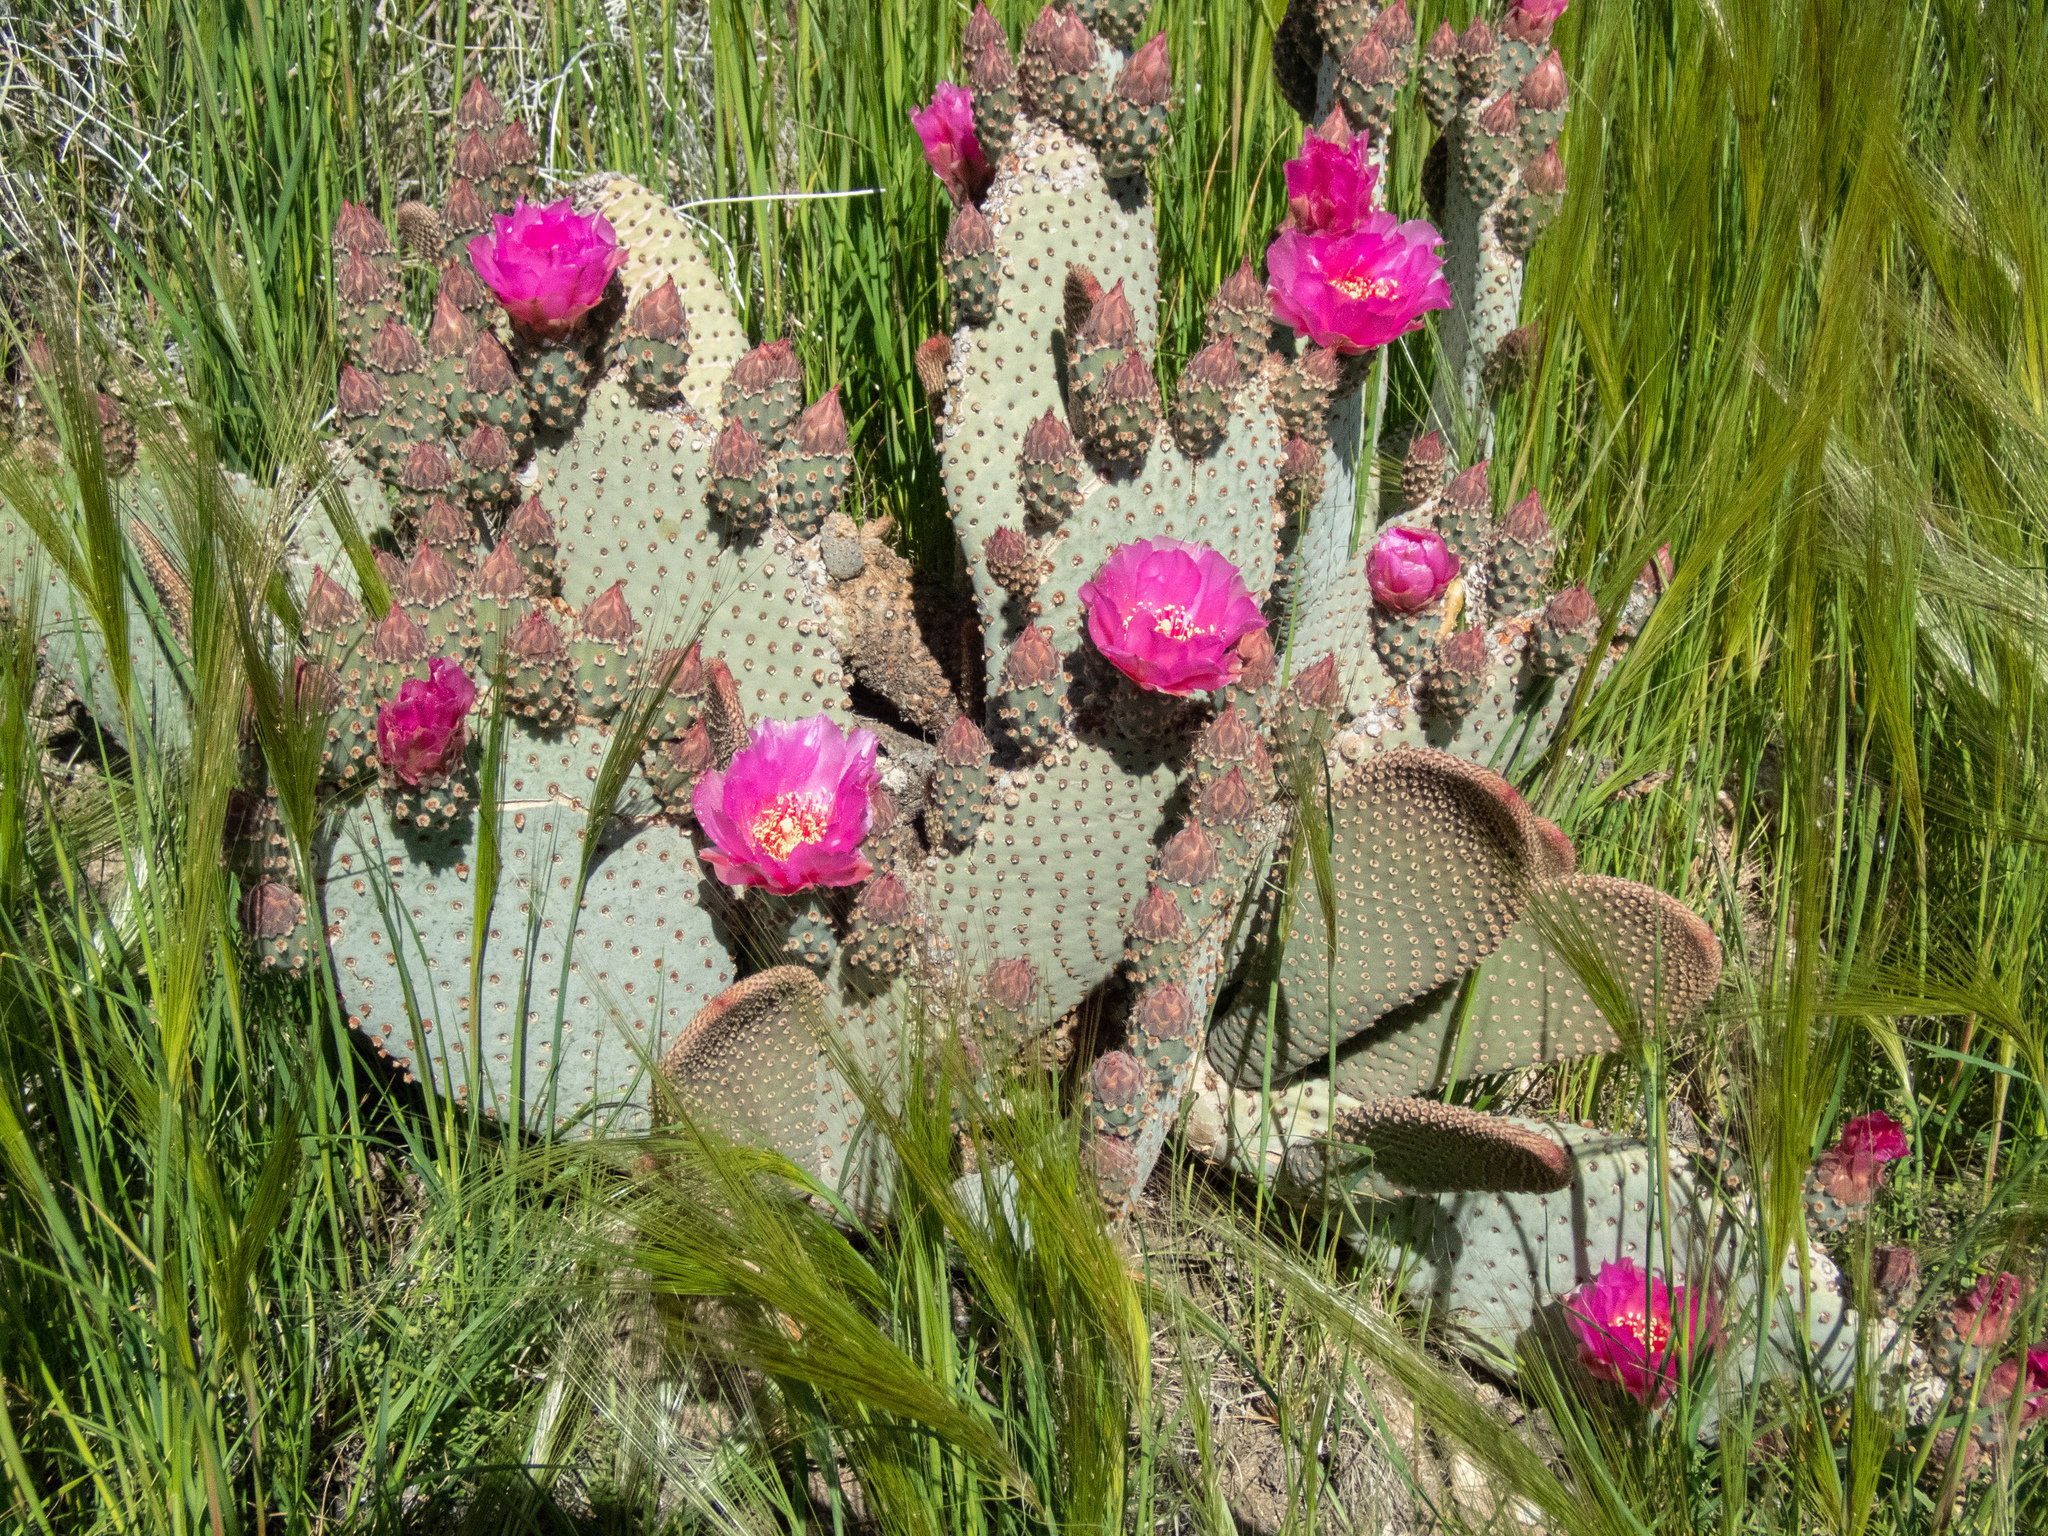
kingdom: Plantae
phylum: Tracheophyta
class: Magnoliopsida
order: Caryophyllales
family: Cactaceae
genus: Opuntia
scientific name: Opuntia basilaris
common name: Beavertail prickly-pear
